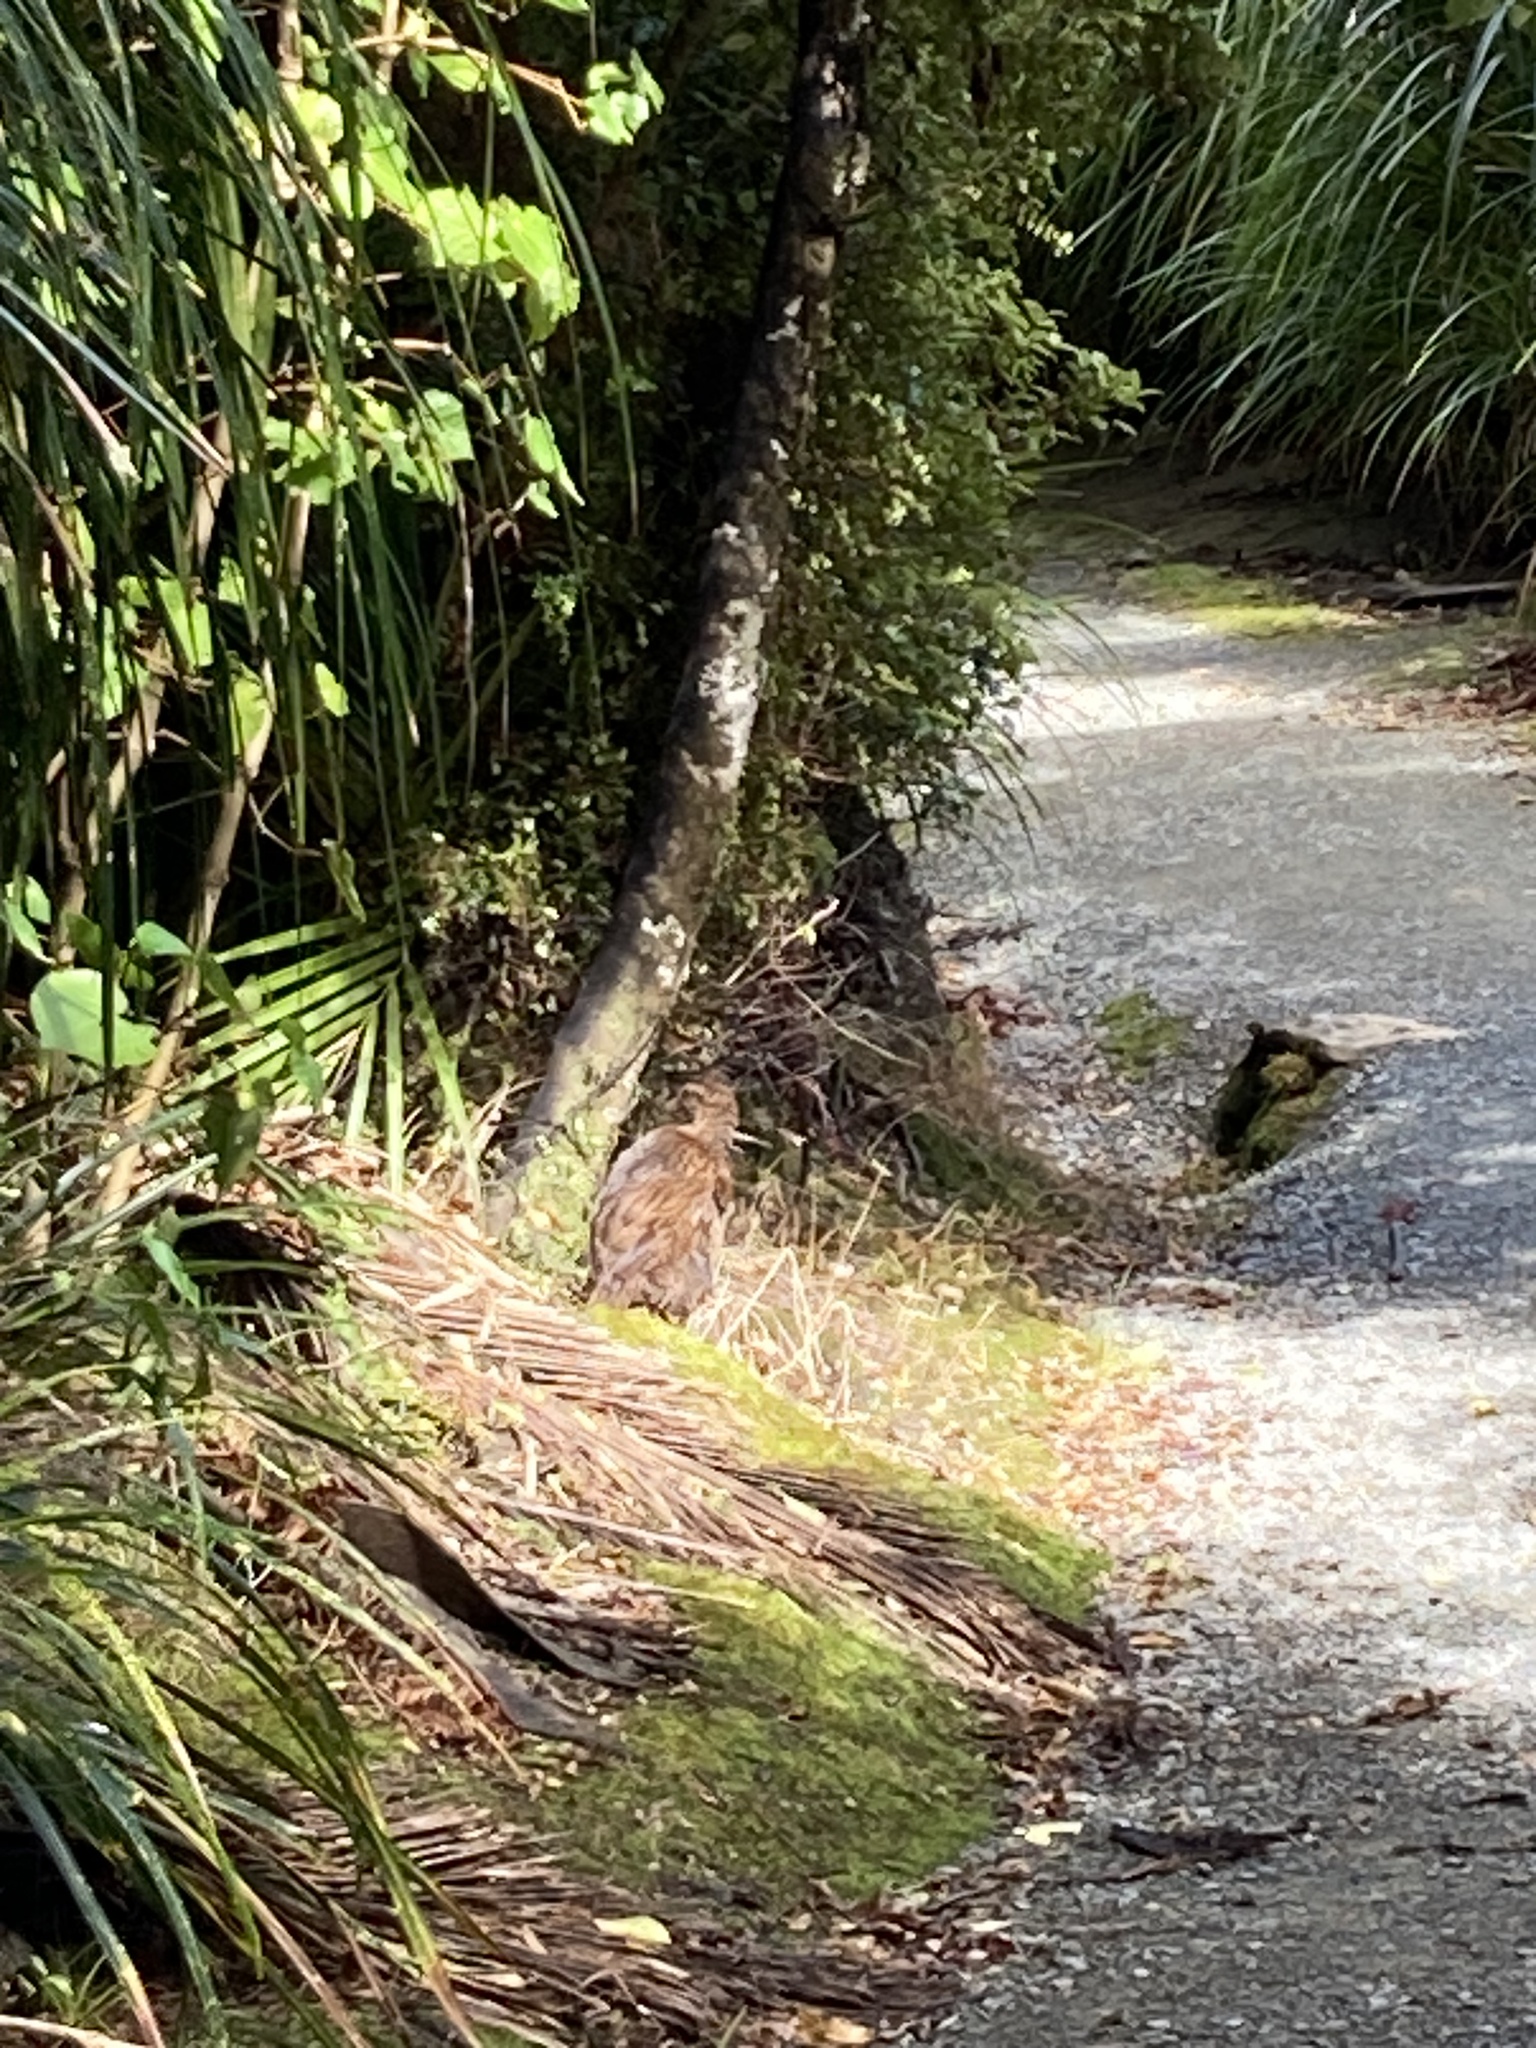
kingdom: Animalia
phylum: Chordata
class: Aves
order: Gruiformes
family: Rallidae
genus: Gallirallus
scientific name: Gallirallus australis
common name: Weka
